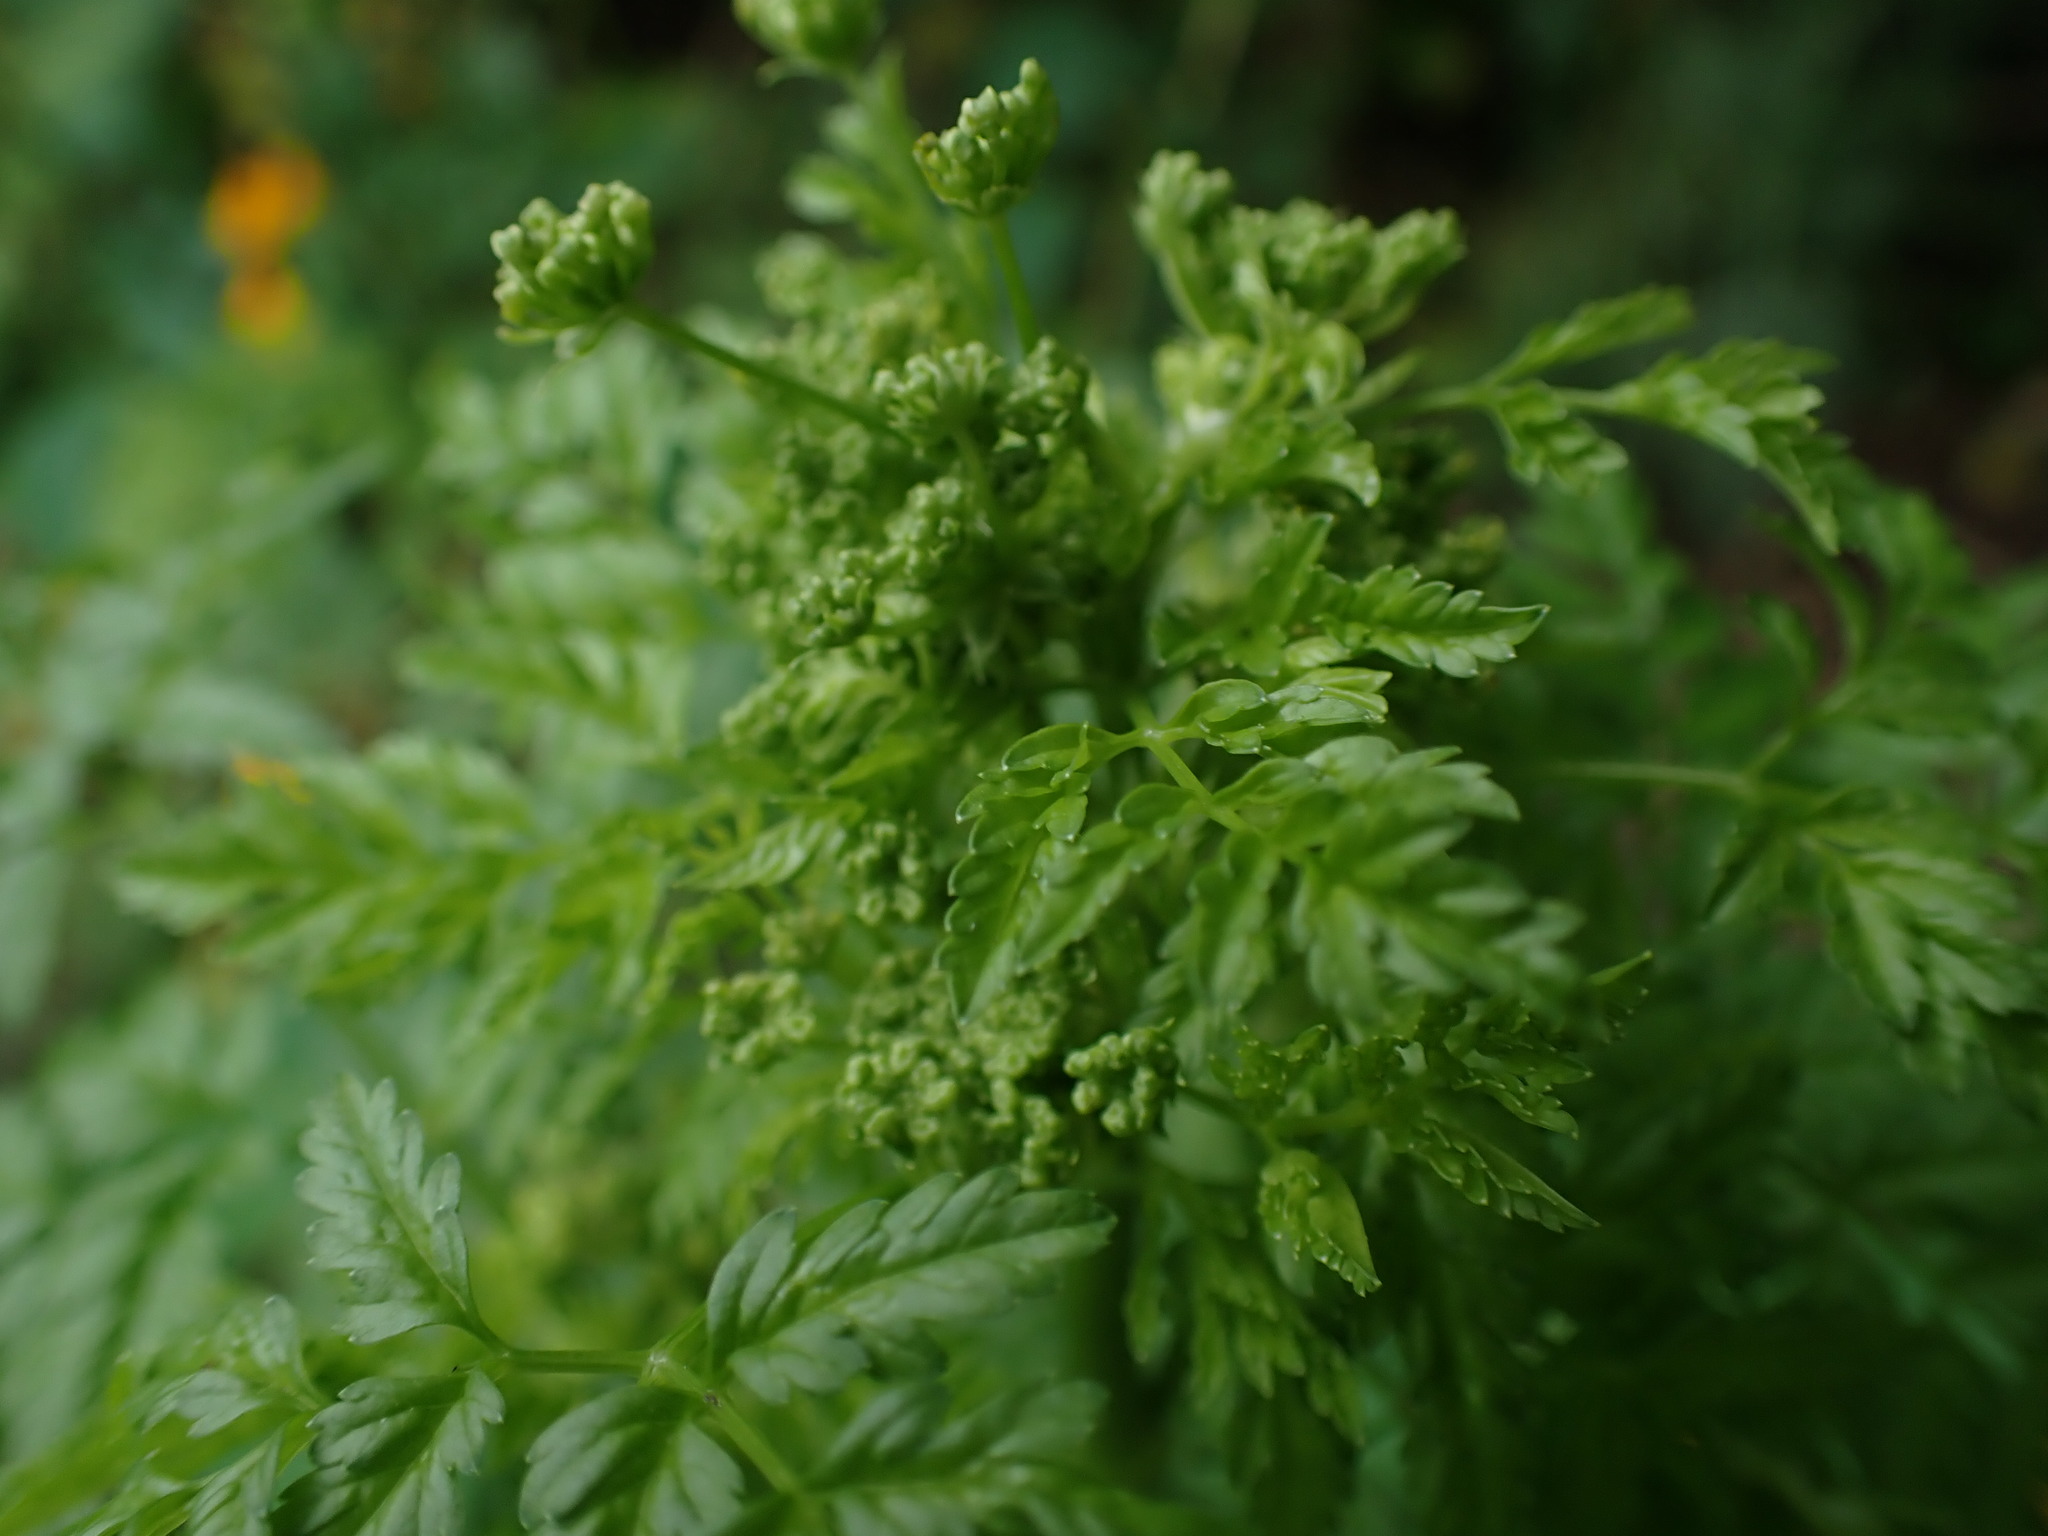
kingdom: Plantae
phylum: Tracheophyta
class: Magnoliopsida
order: Apiales
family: Apiaceae
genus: Conium
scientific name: Conium maculatum
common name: Hemlock
